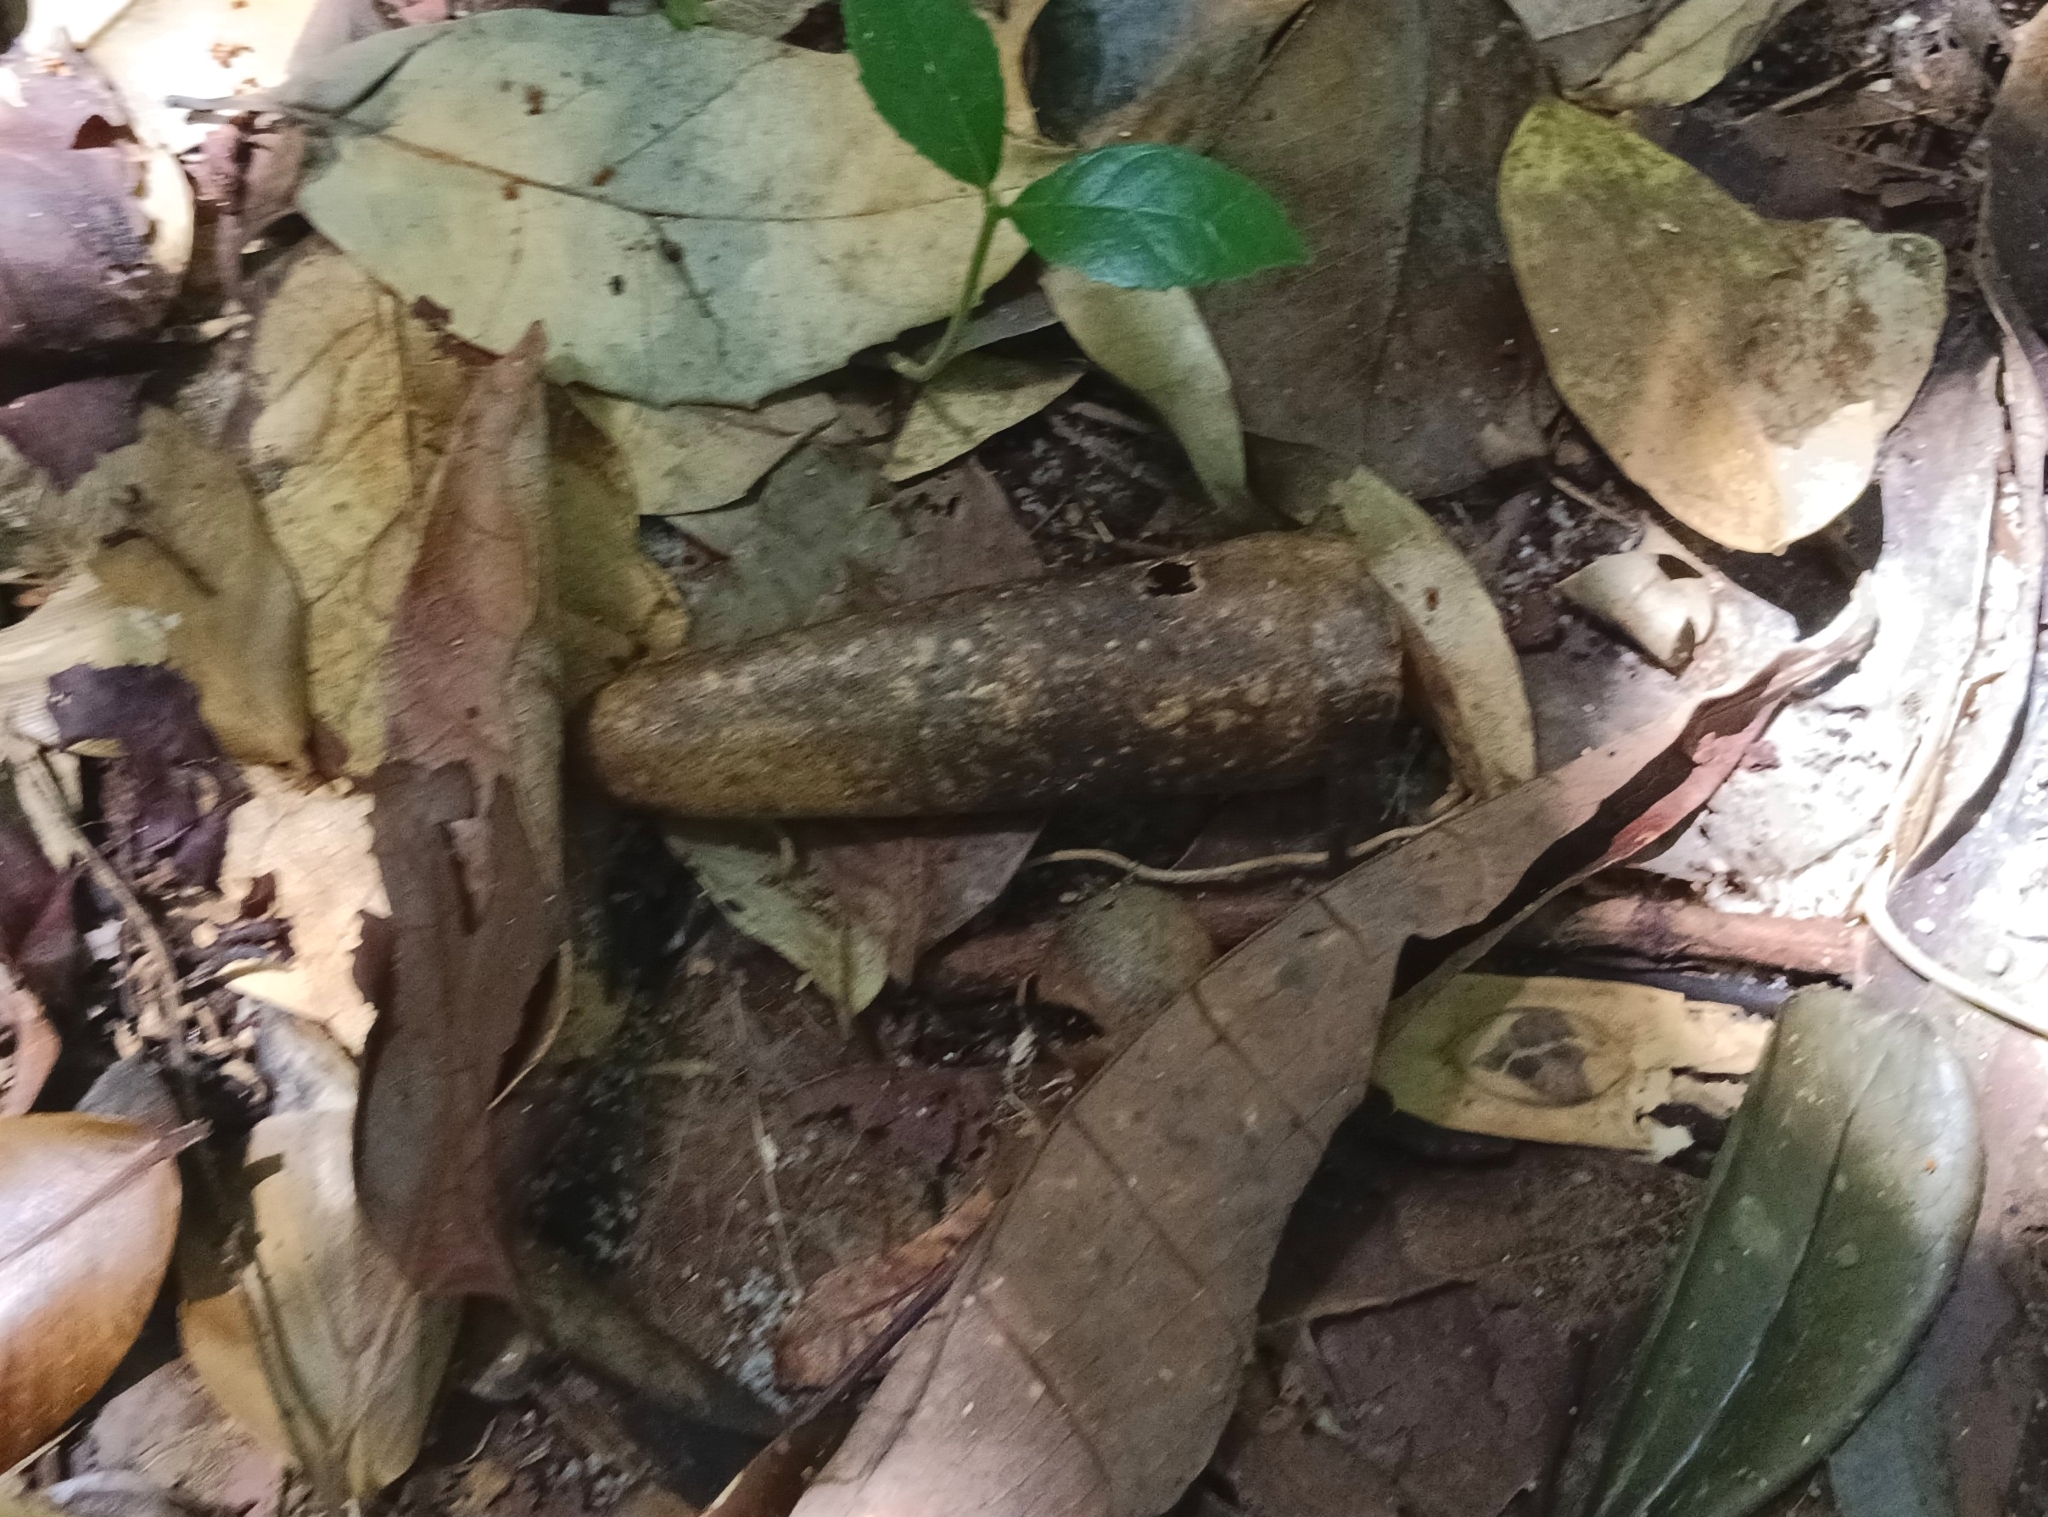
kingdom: Plantae
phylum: Tracheophyta
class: Magnoliopsida
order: Cucurbitales
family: Cucurbitaceae
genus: Zanonia
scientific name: Zanonia indica
